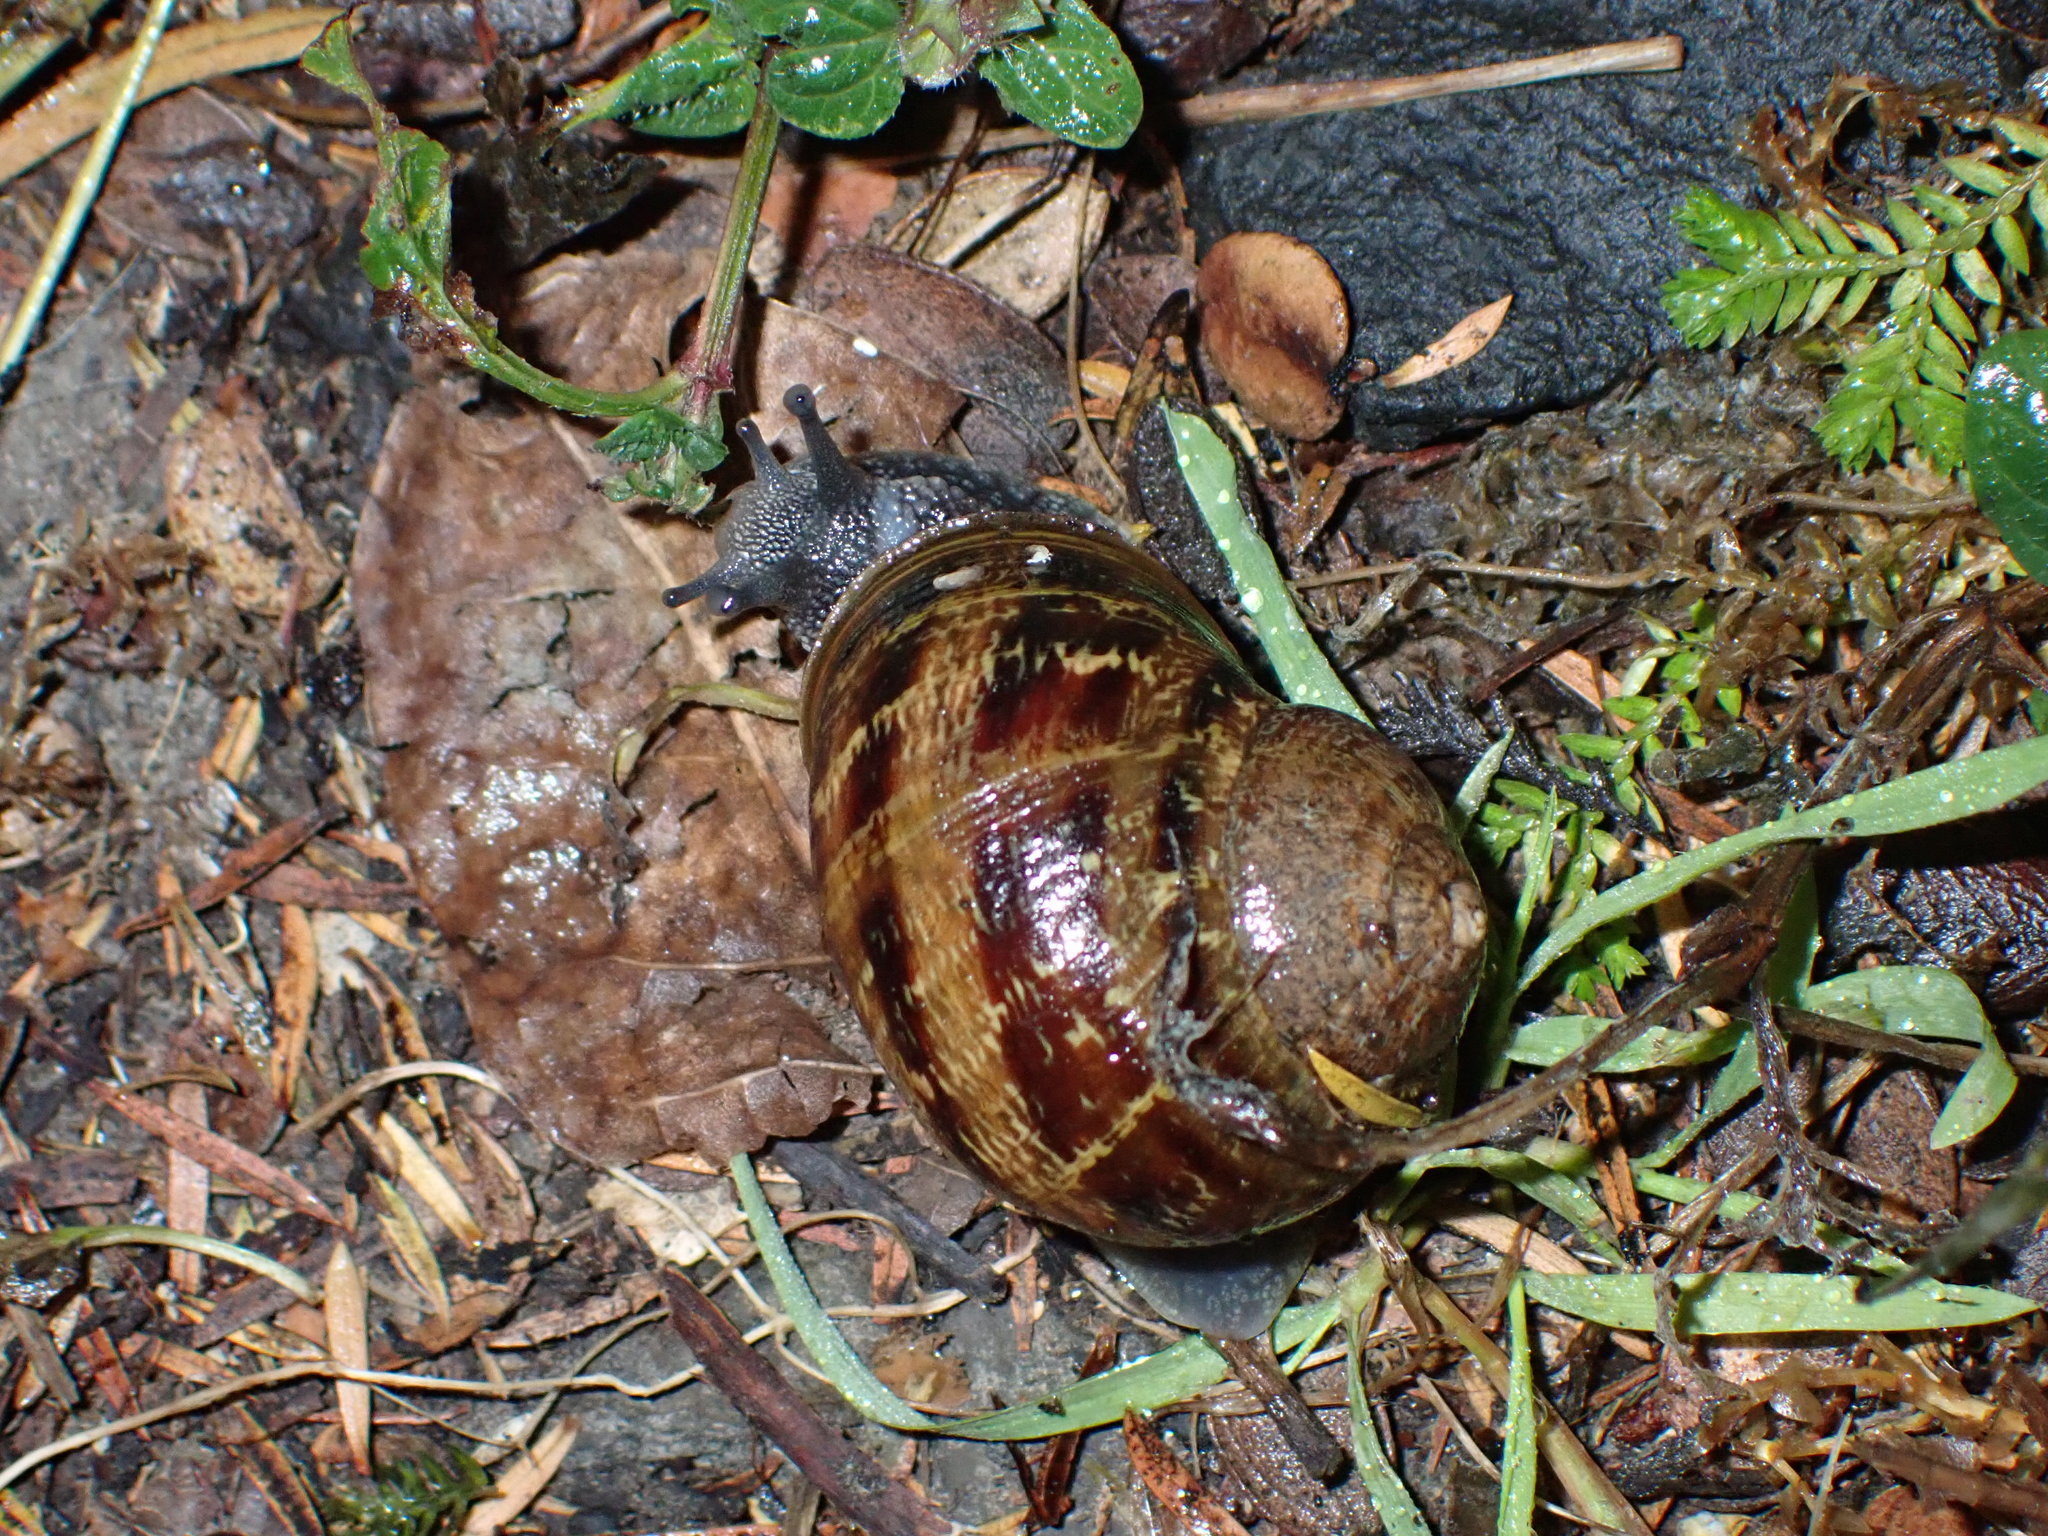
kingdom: Animalia
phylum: Mollusca
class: Gastropoda
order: Stylommatophora
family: Helicidae
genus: Cornu
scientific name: Cornu aspersum
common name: Brown garden snail
